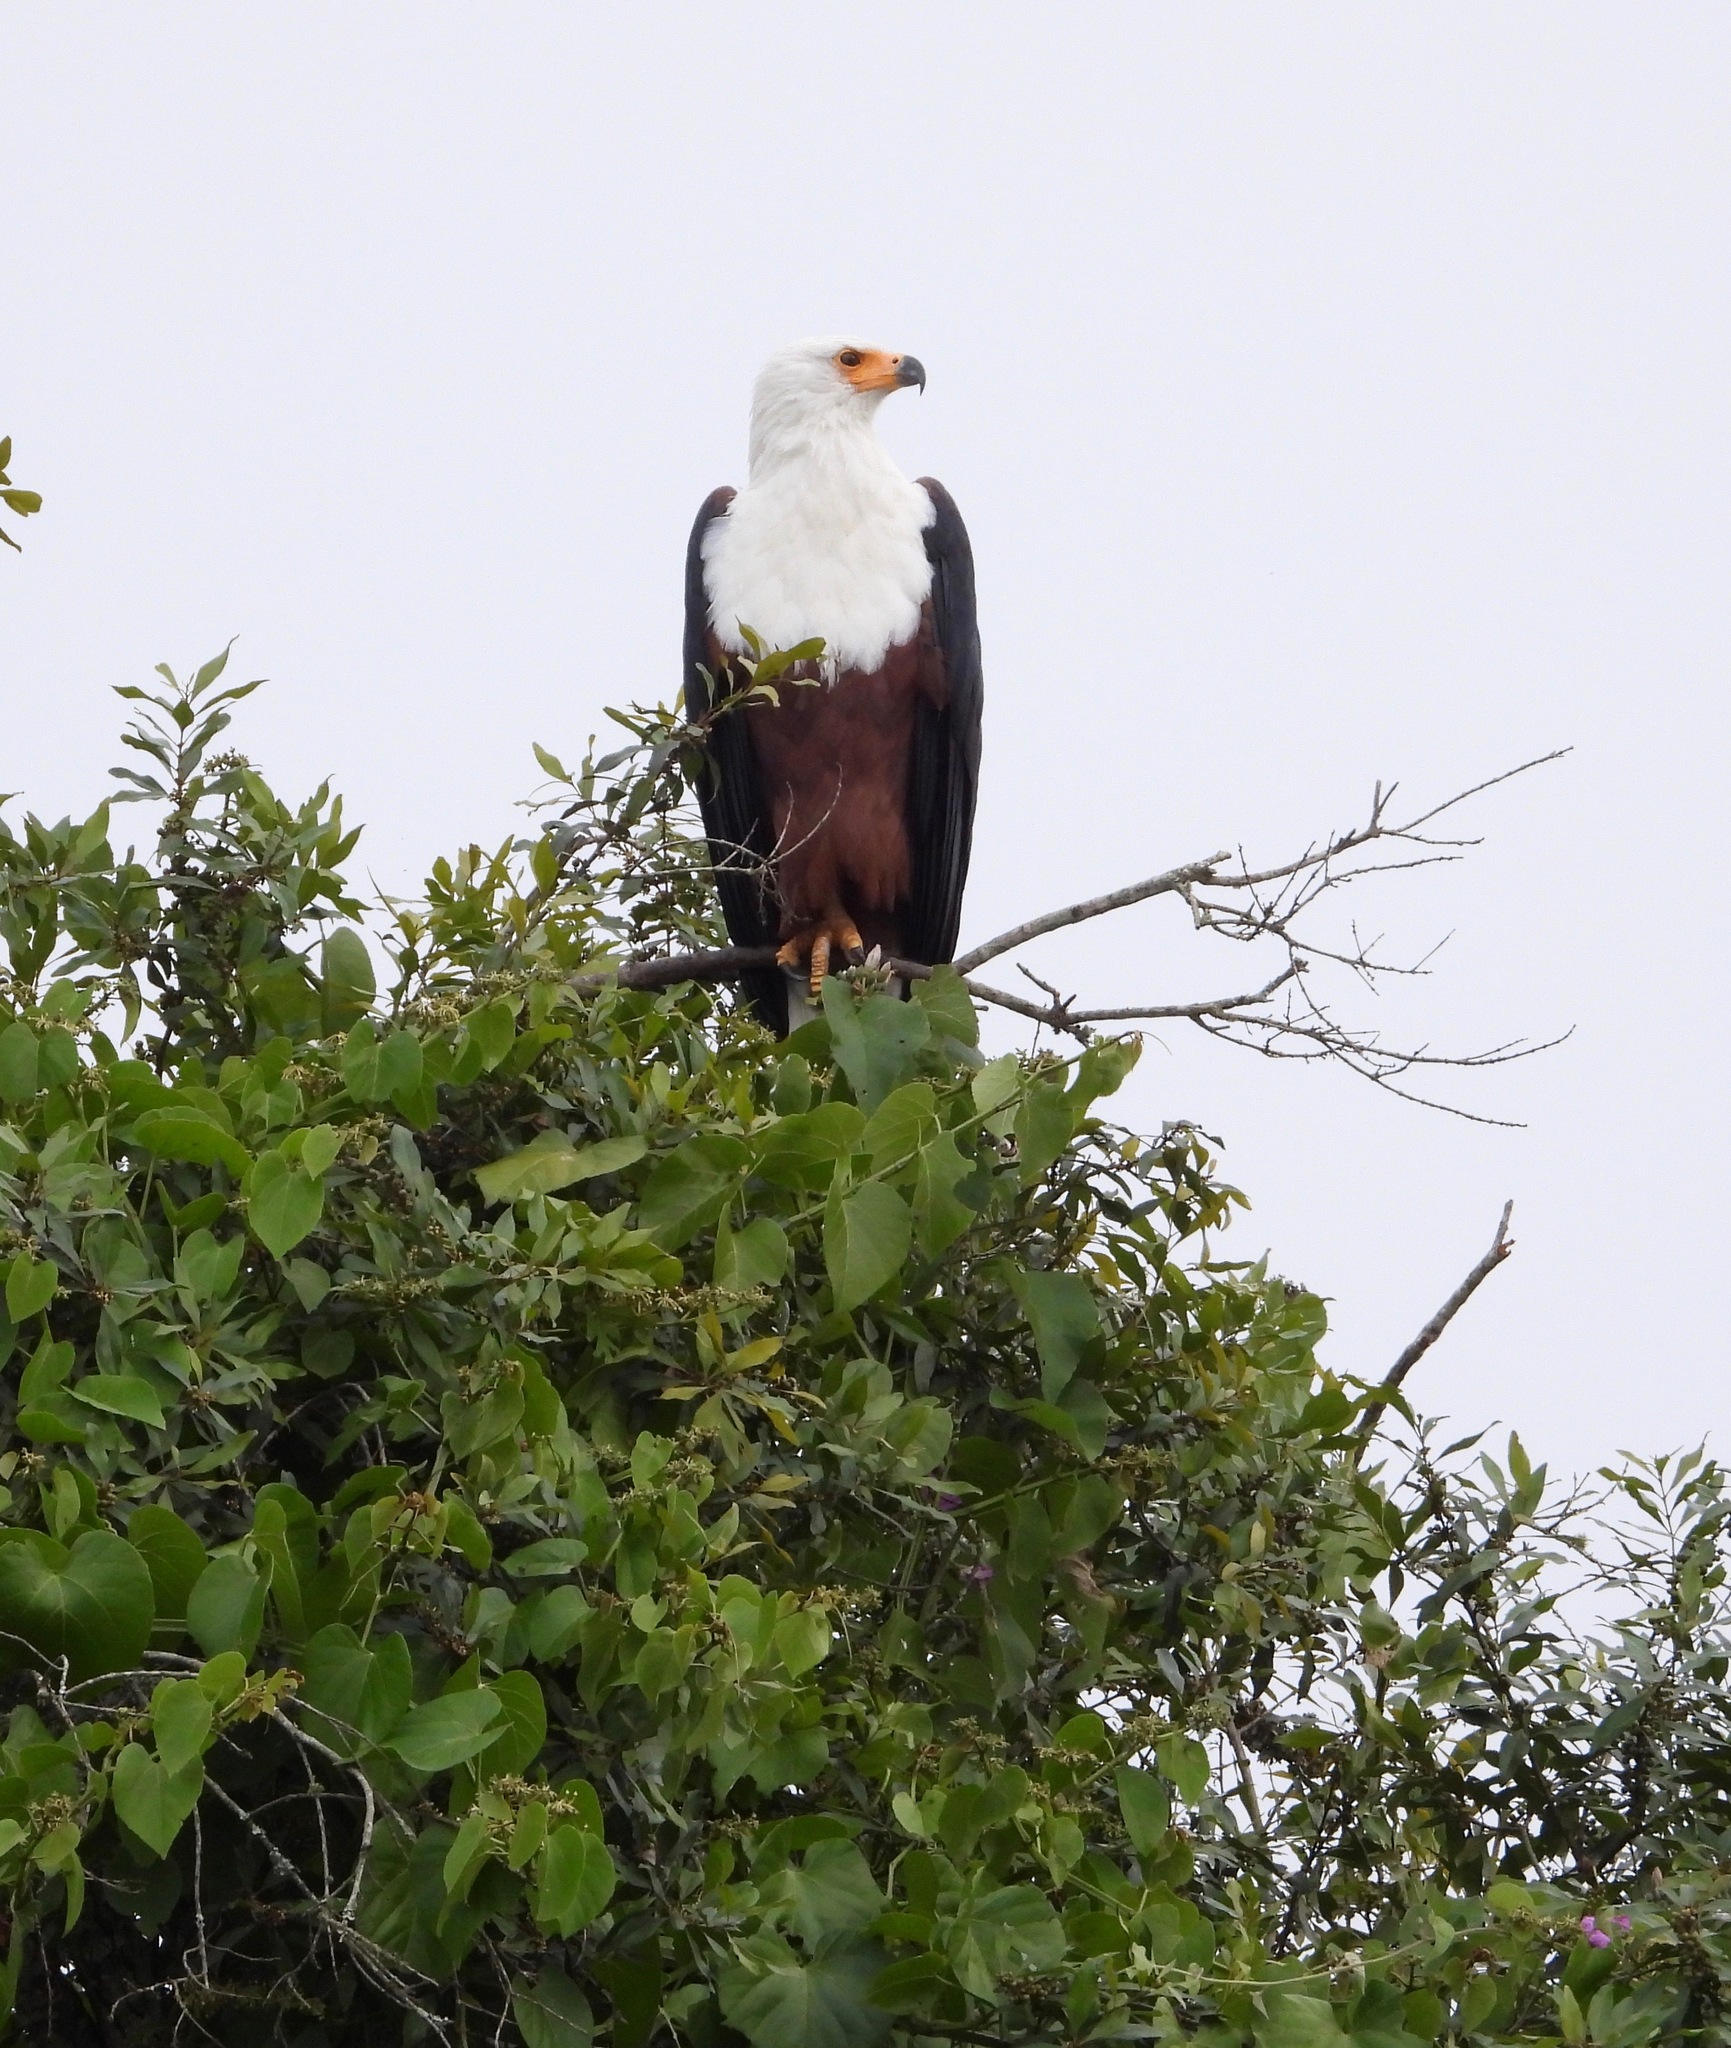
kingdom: Animalia
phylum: Chordata
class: Aves
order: Accipitriformes
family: Accipitridae
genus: Haliaeetus
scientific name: Haliaeetus vocifer
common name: African fish eagle
